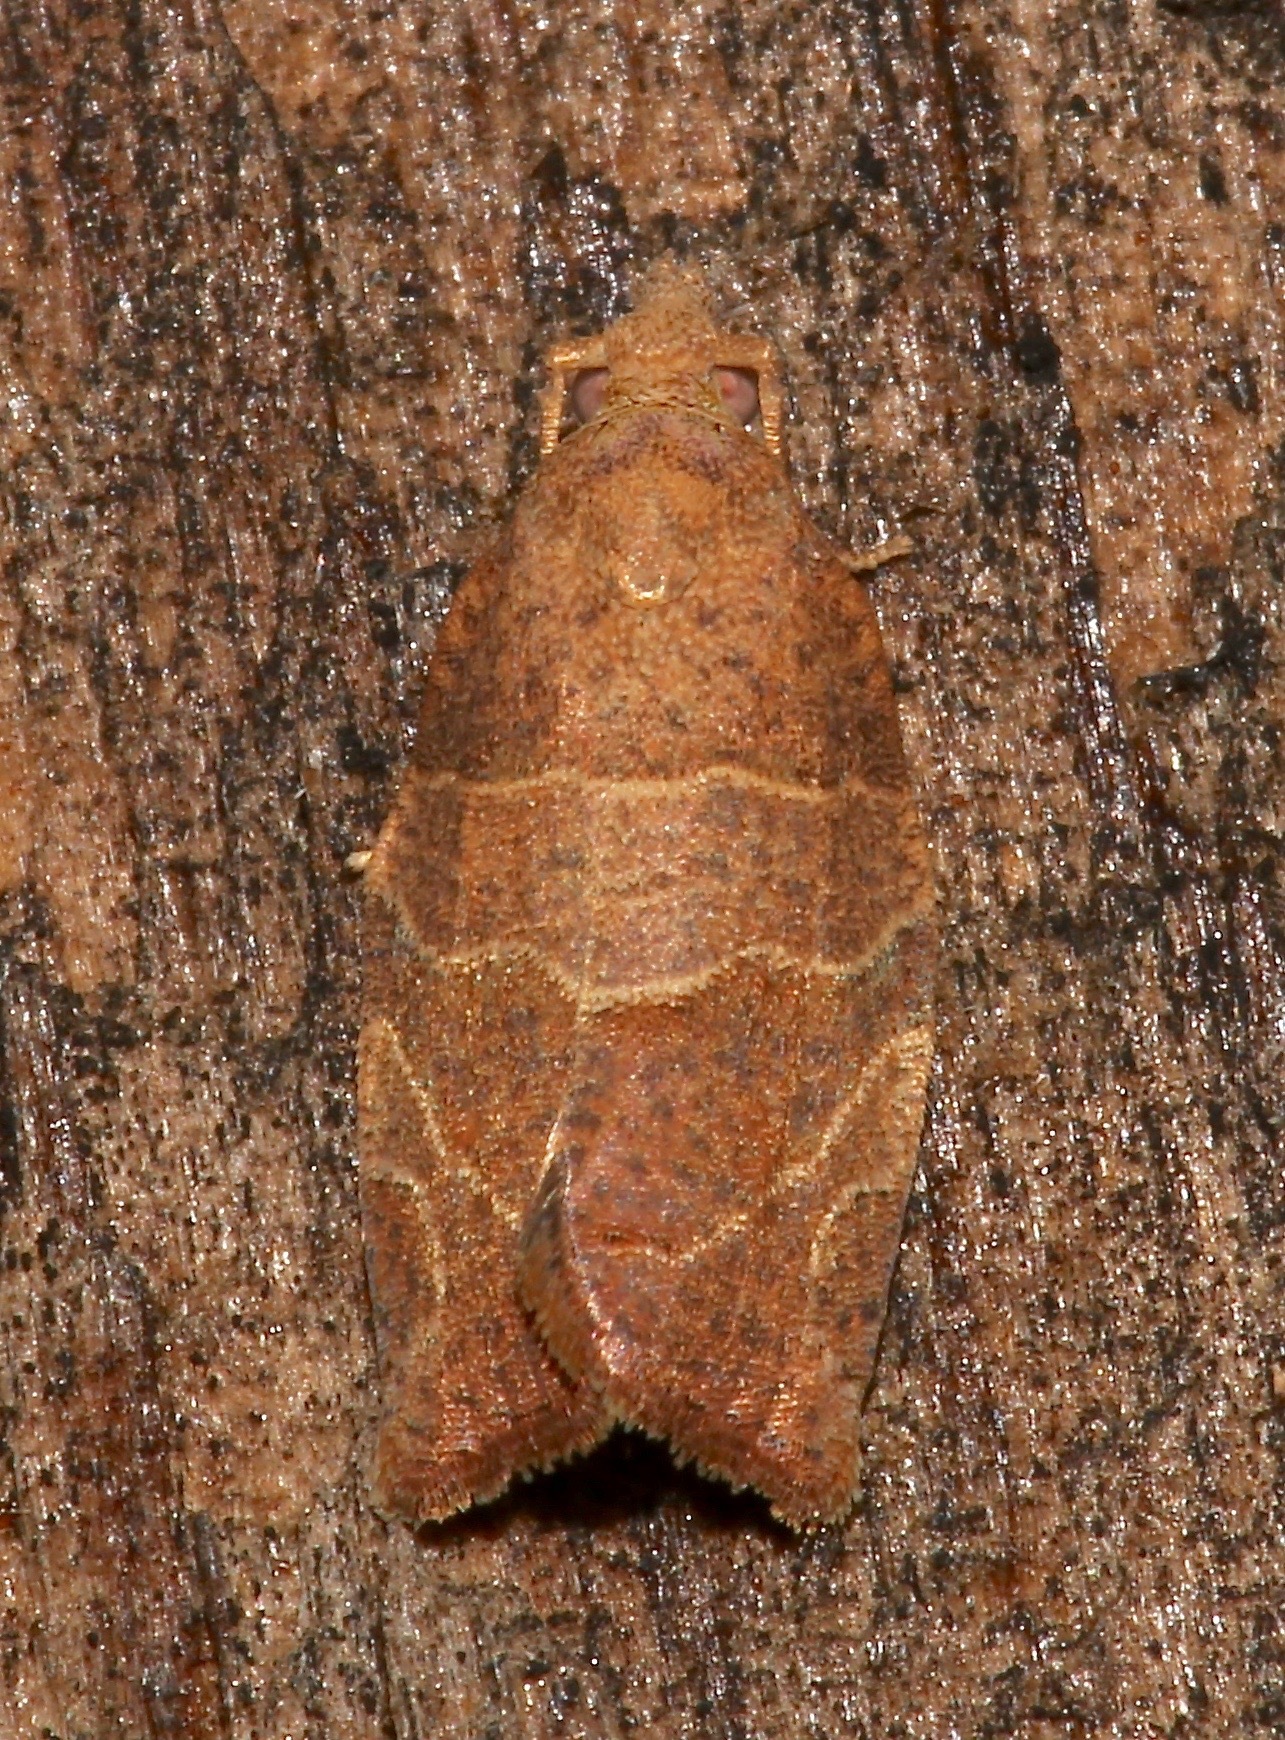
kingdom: Animalia
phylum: Arthropoda
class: Insecta
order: Lepidoptera
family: Tortricidae
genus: Pandemis
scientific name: Pandemis limitata
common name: Three-lined leafroller moth
